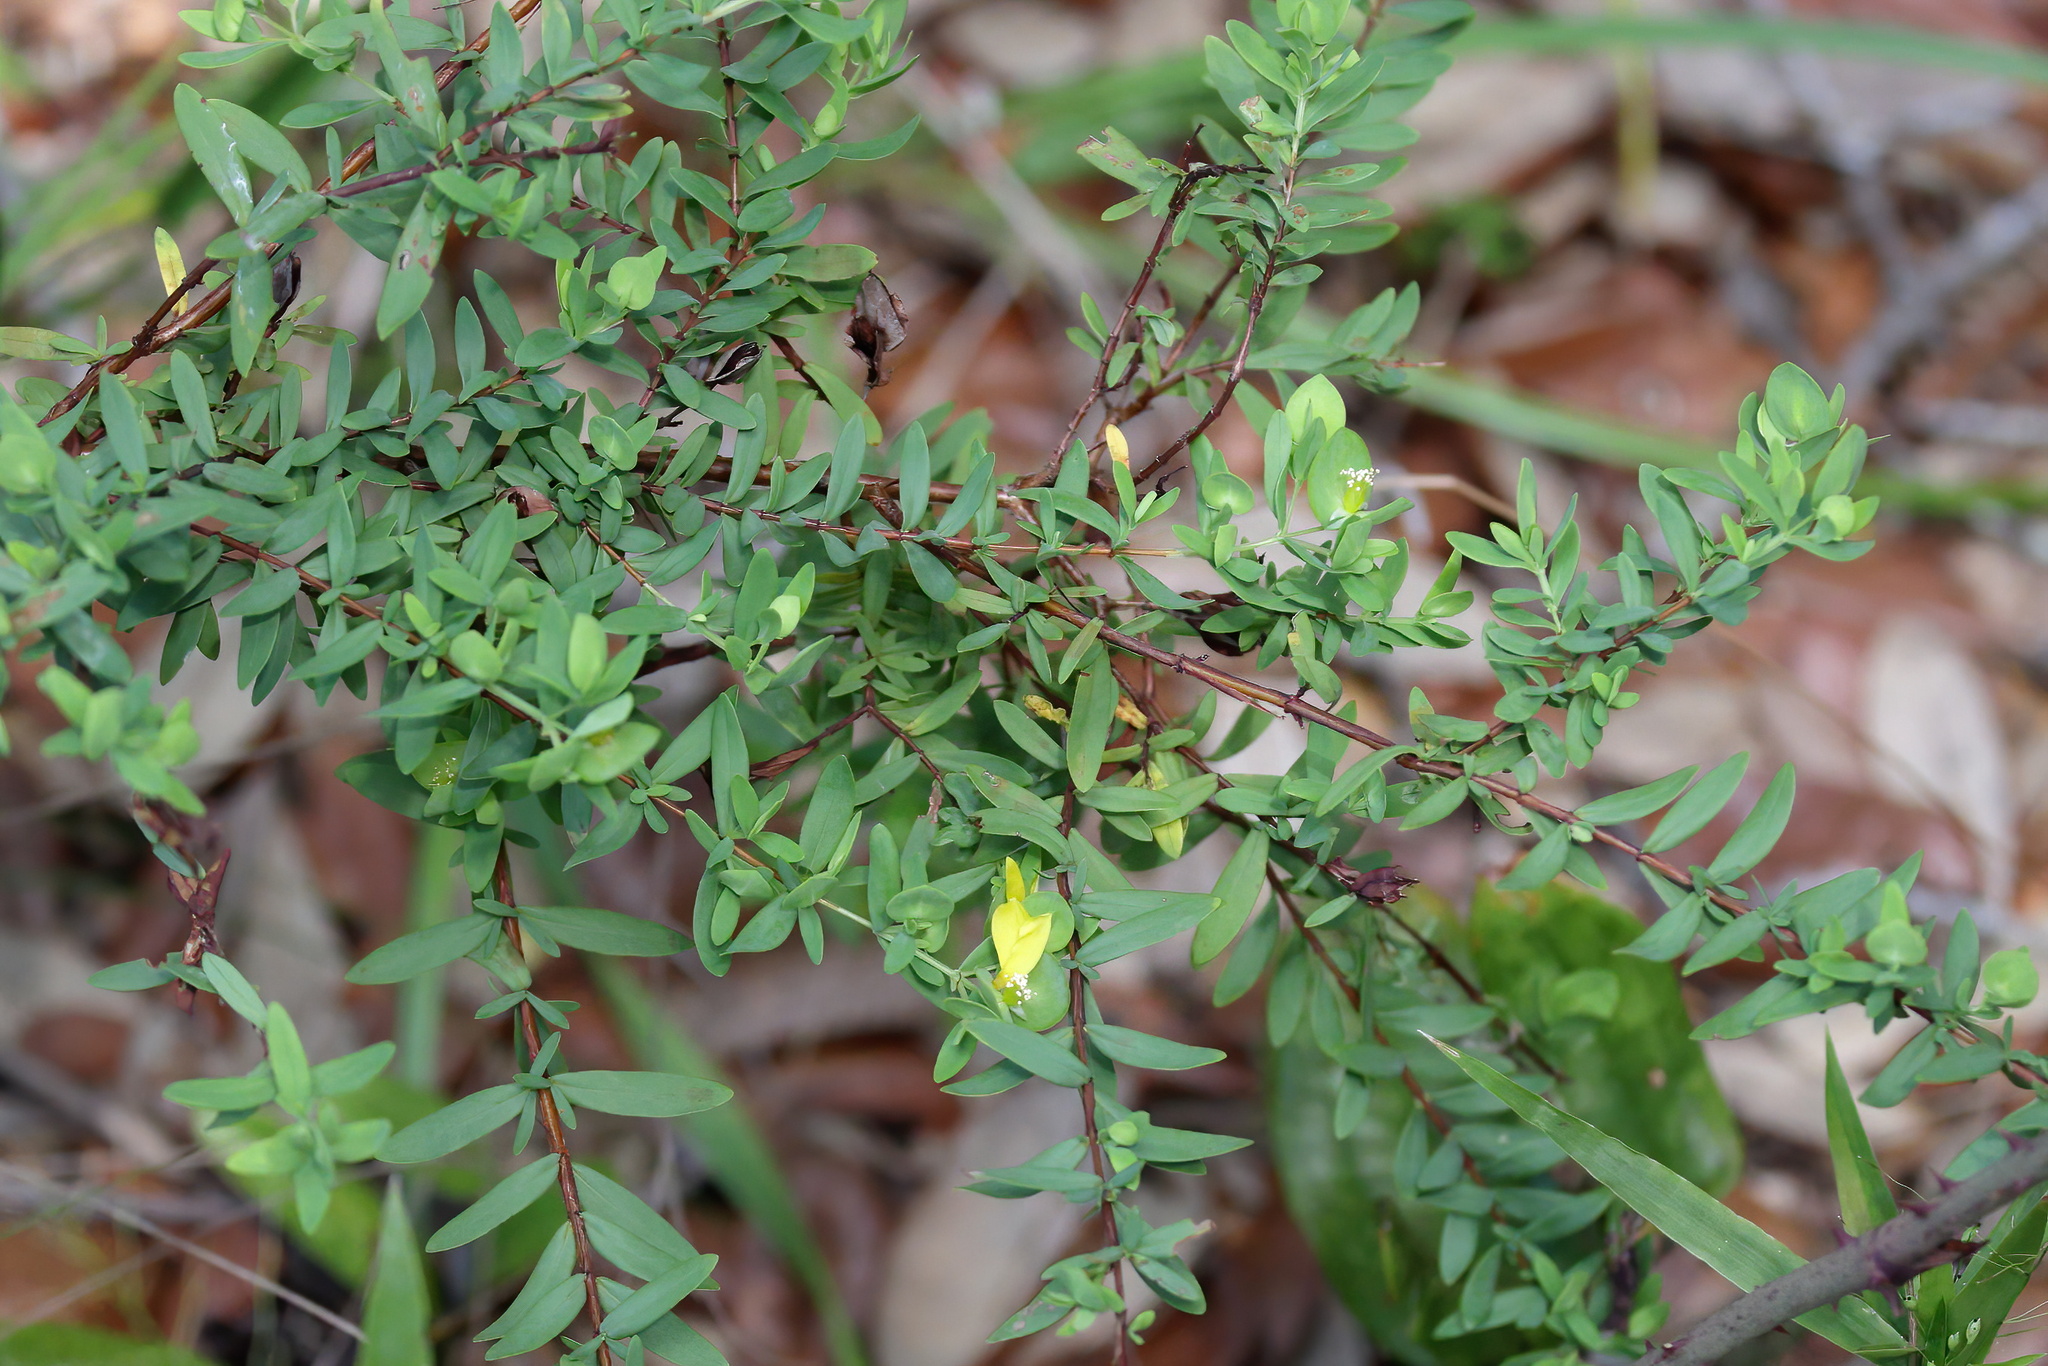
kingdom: Plantae
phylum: Tracheophyta
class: Magnoliopsida
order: Malpighiales
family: Hypericaceae
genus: Hypericum
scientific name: Hypericum hypericoides
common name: St. andrew's cross
